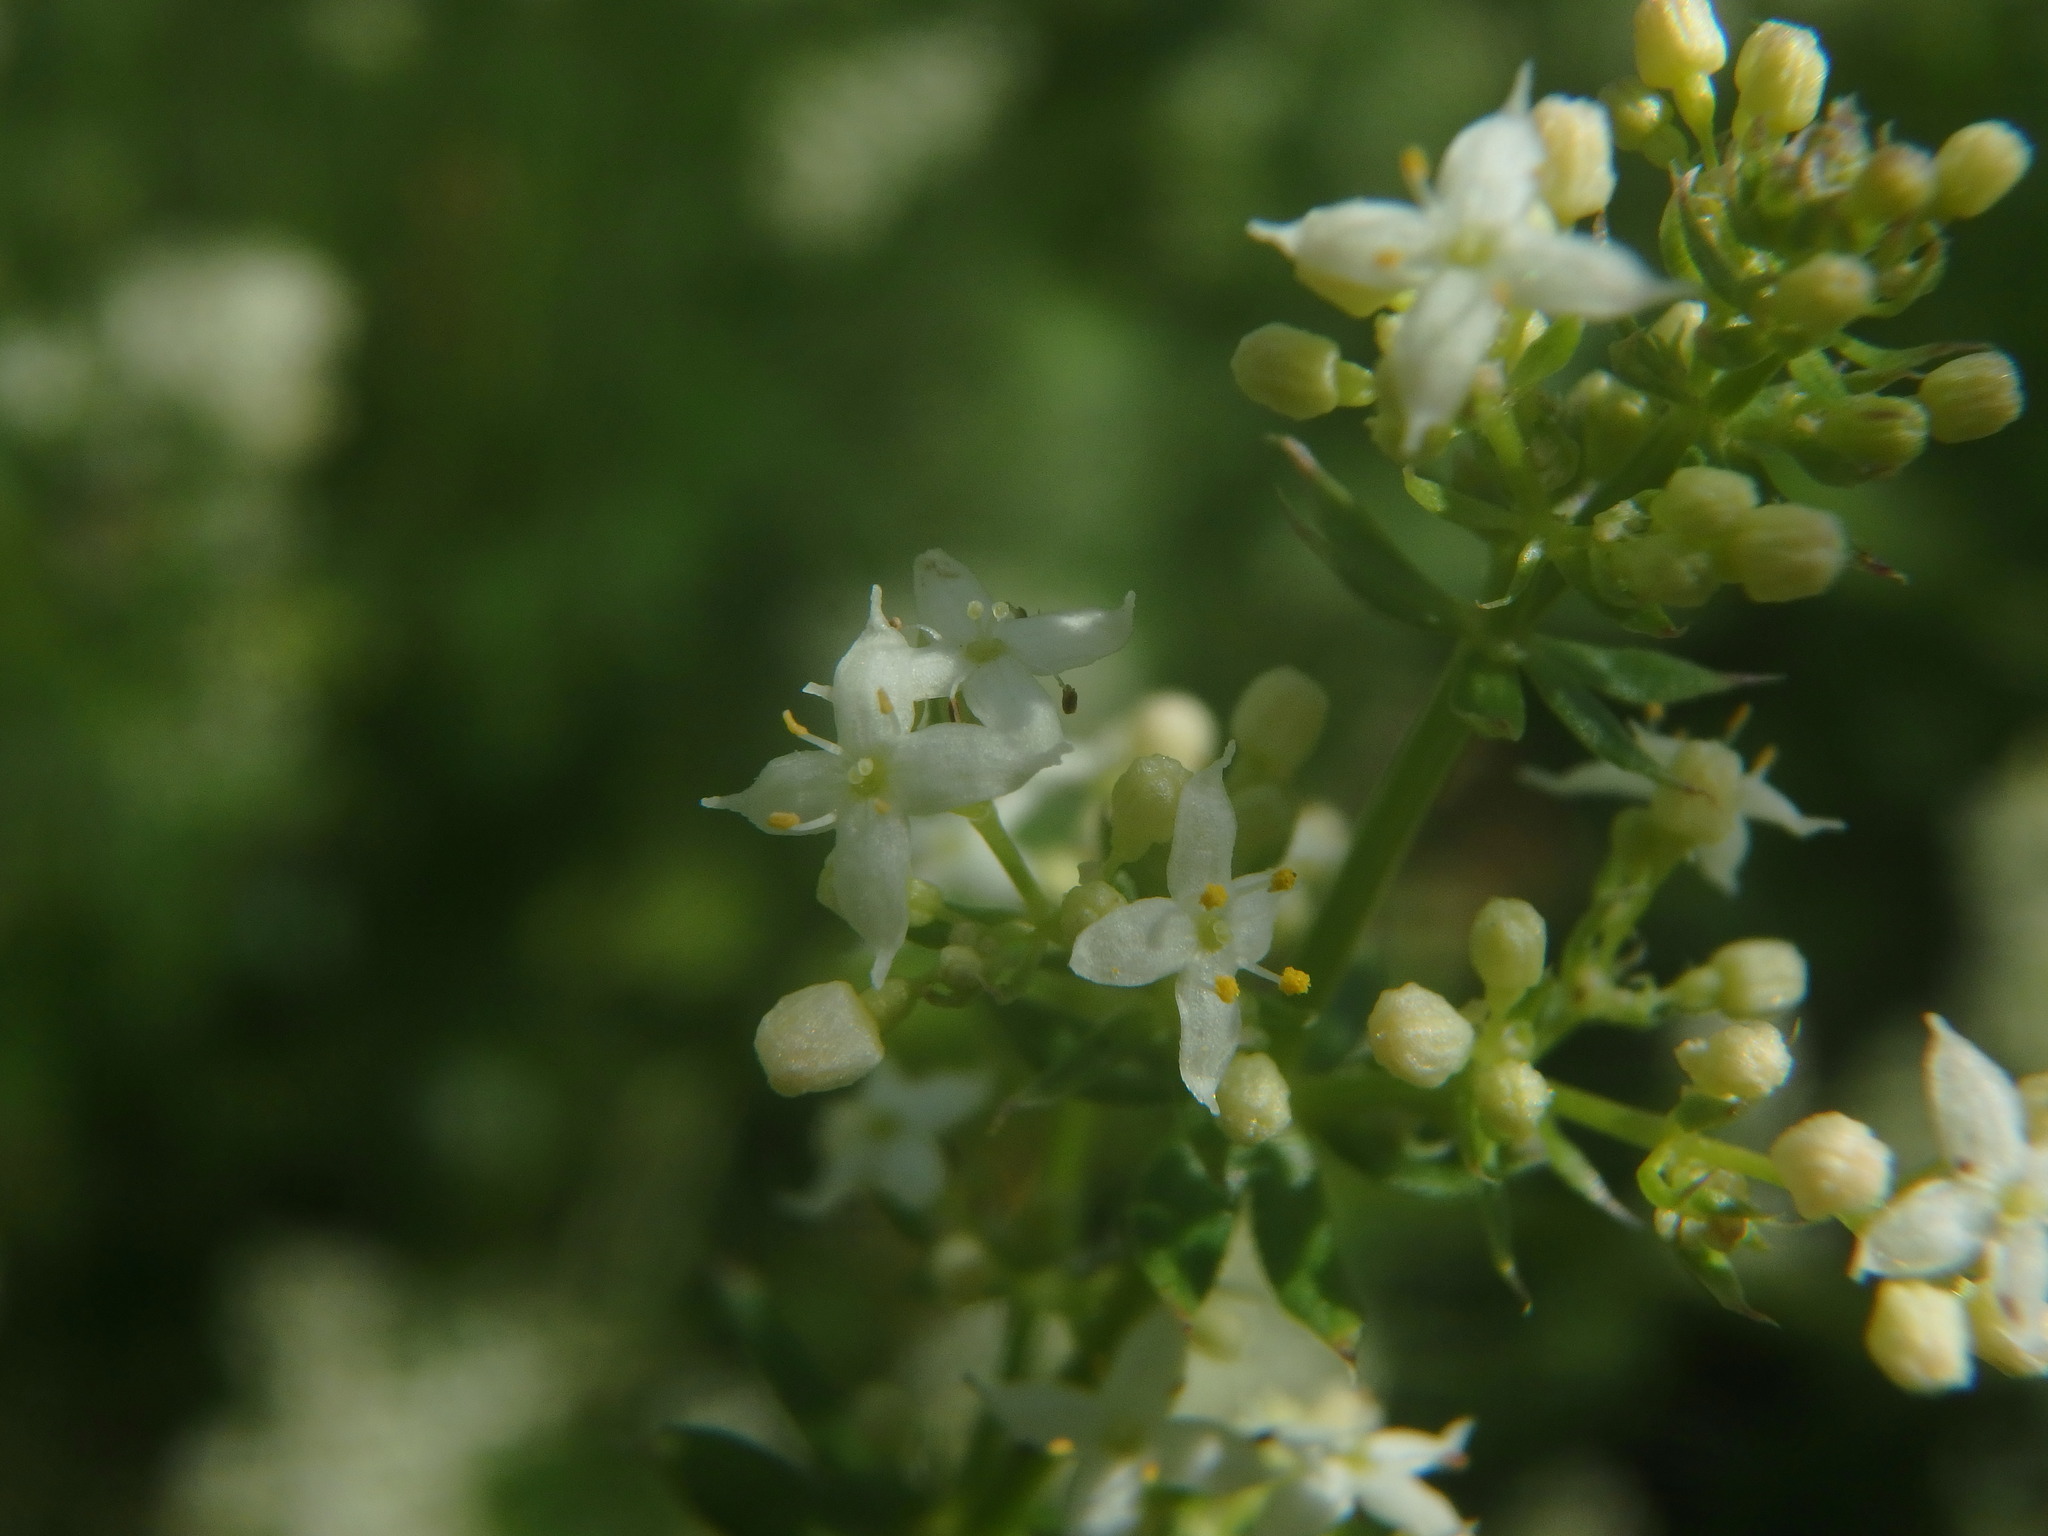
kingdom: Plantae
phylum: Tracheophyta
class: Magnoliopsida
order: Gentianales
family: Rubiaceae
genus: Galium
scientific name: Galium album
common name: White bedstraw
